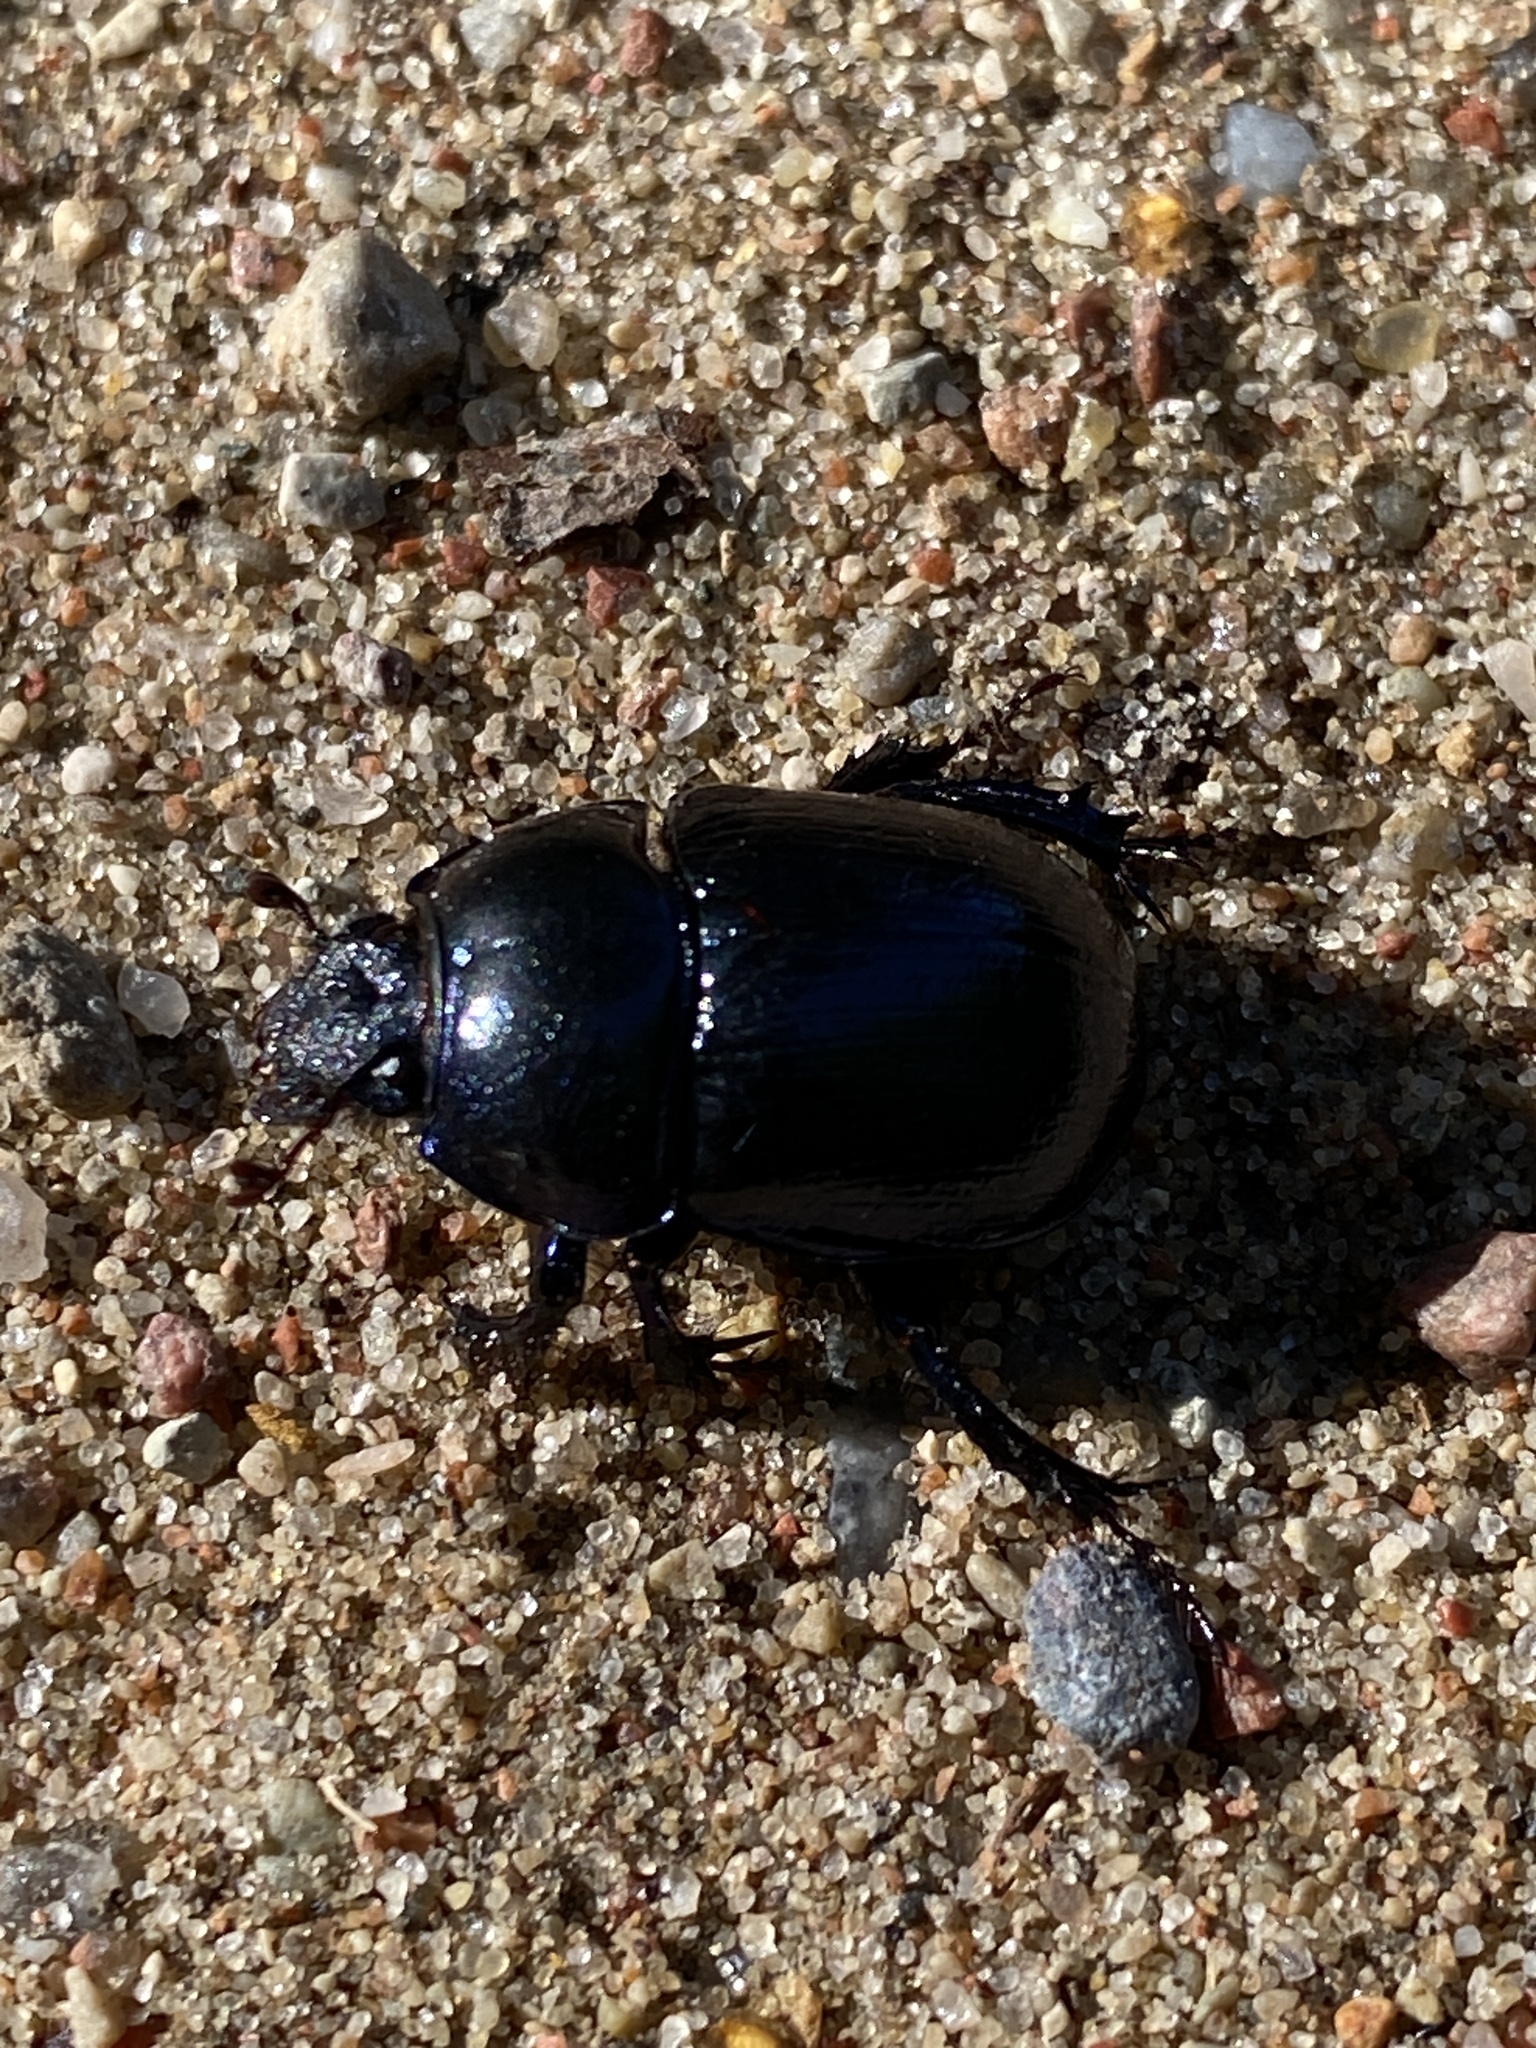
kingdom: Animalia
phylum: Arthropoda
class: Insecta
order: Coleoptera
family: Geotrupidae
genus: Anoplotrupes
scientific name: Anoplotrupes stercorosus
